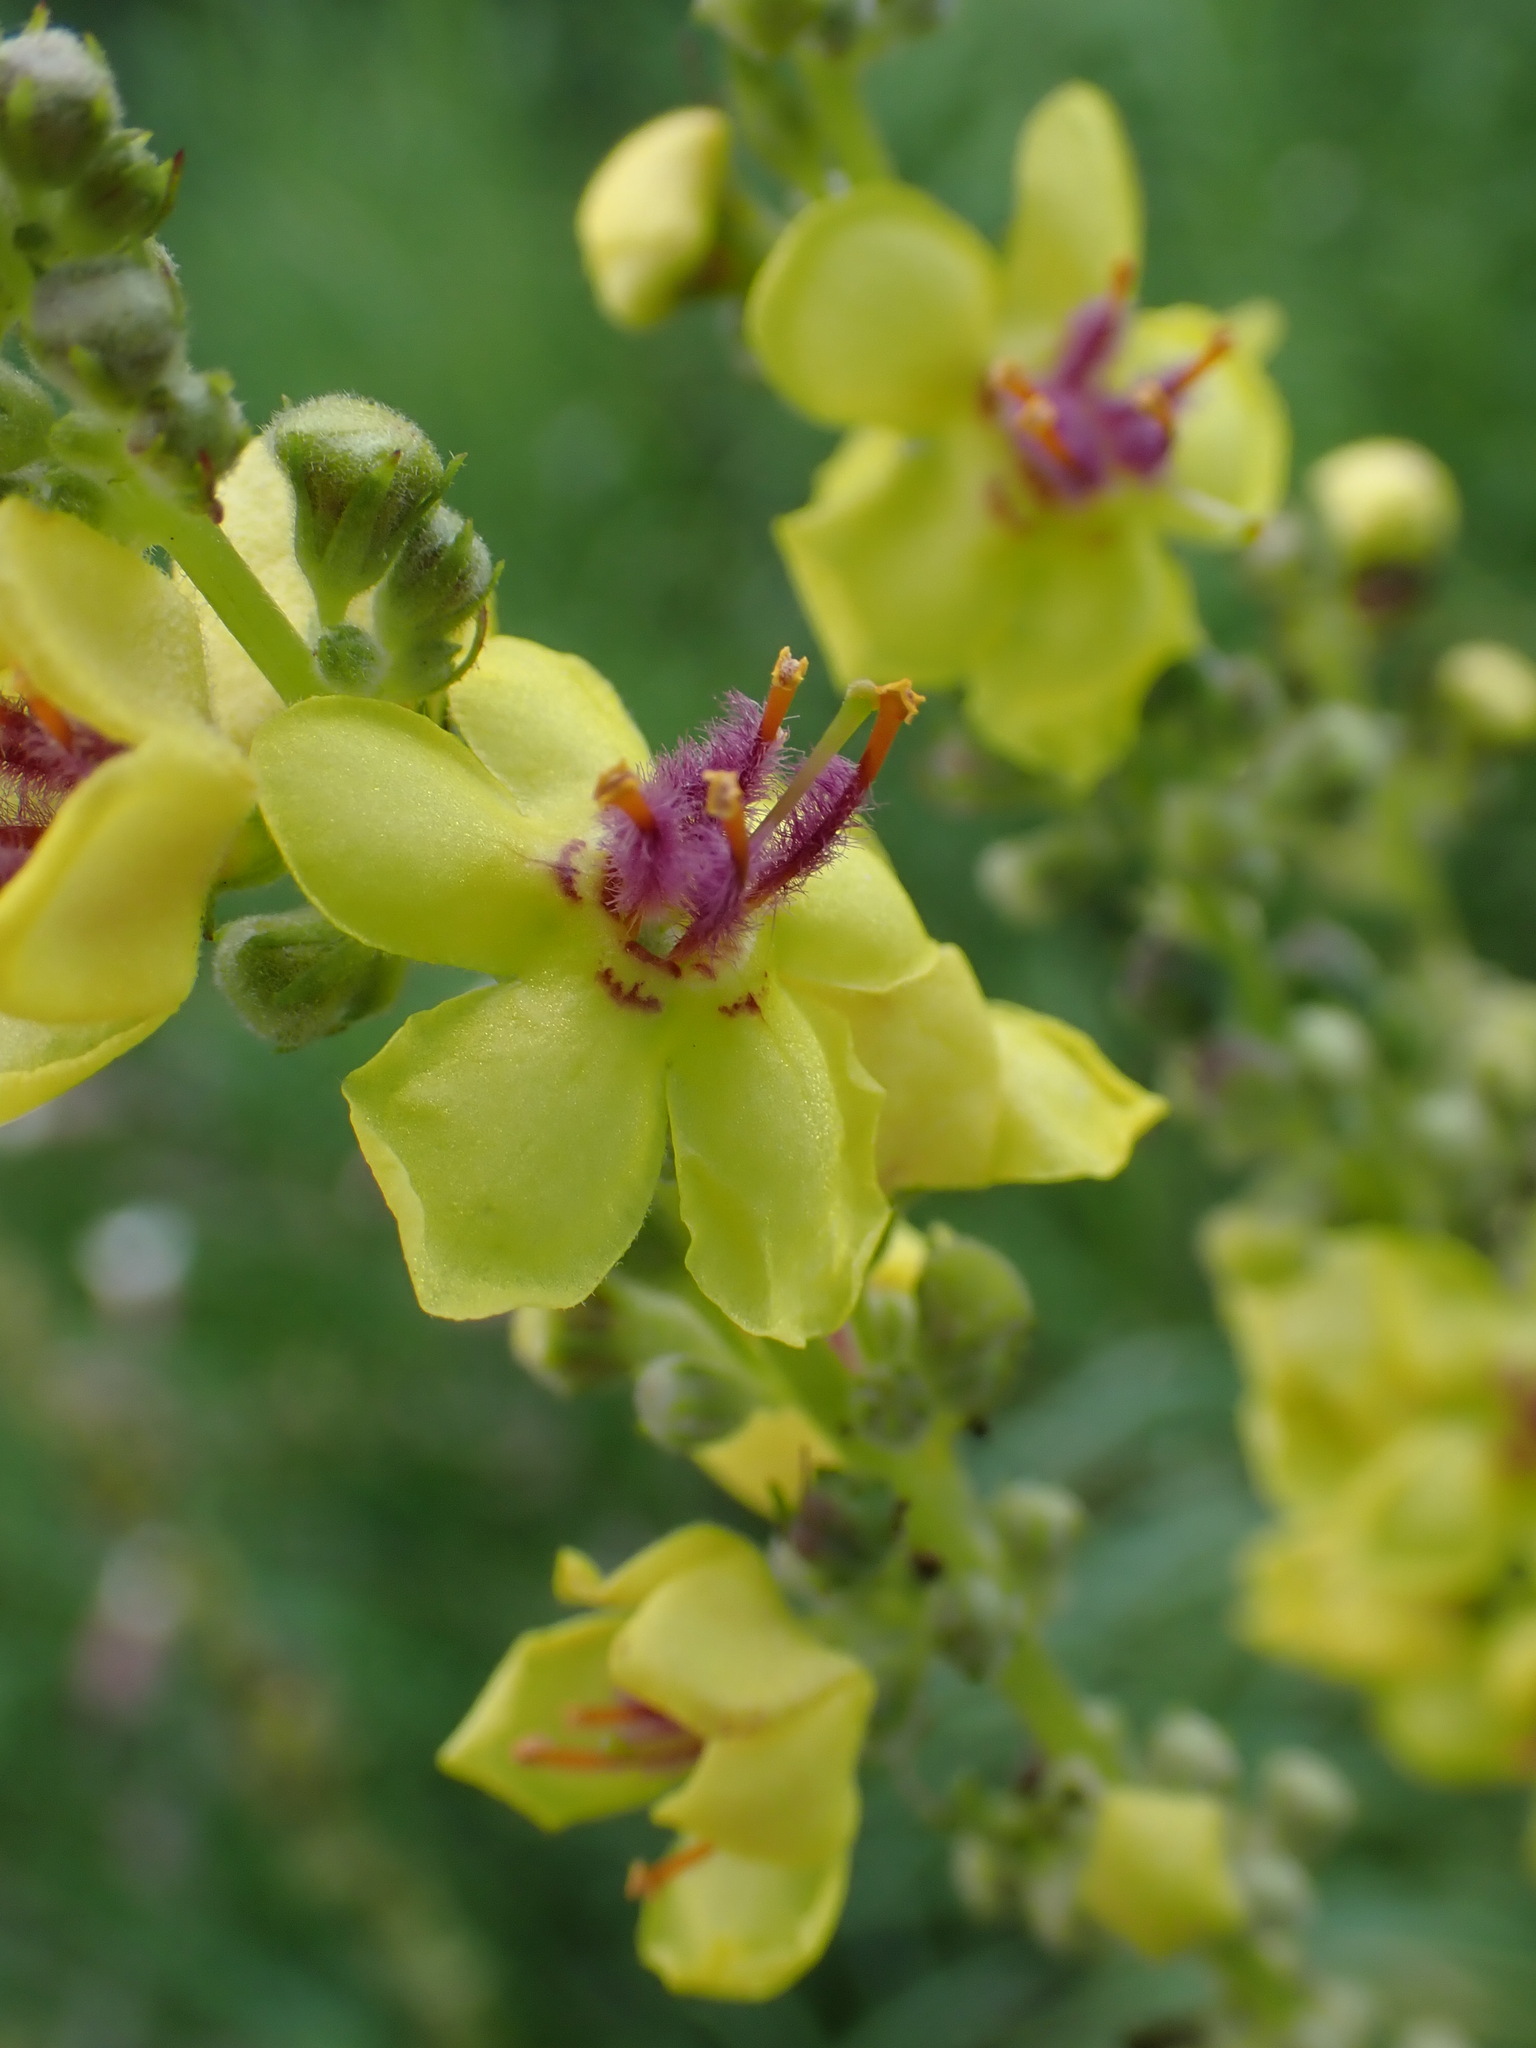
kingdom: Plantae
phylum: Tracheophyta
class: Magnoliopsida
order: Lamiales
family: Scrophulariaceae
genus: Verbascum
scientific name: Verbascum nigrum
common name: Dark mullein
